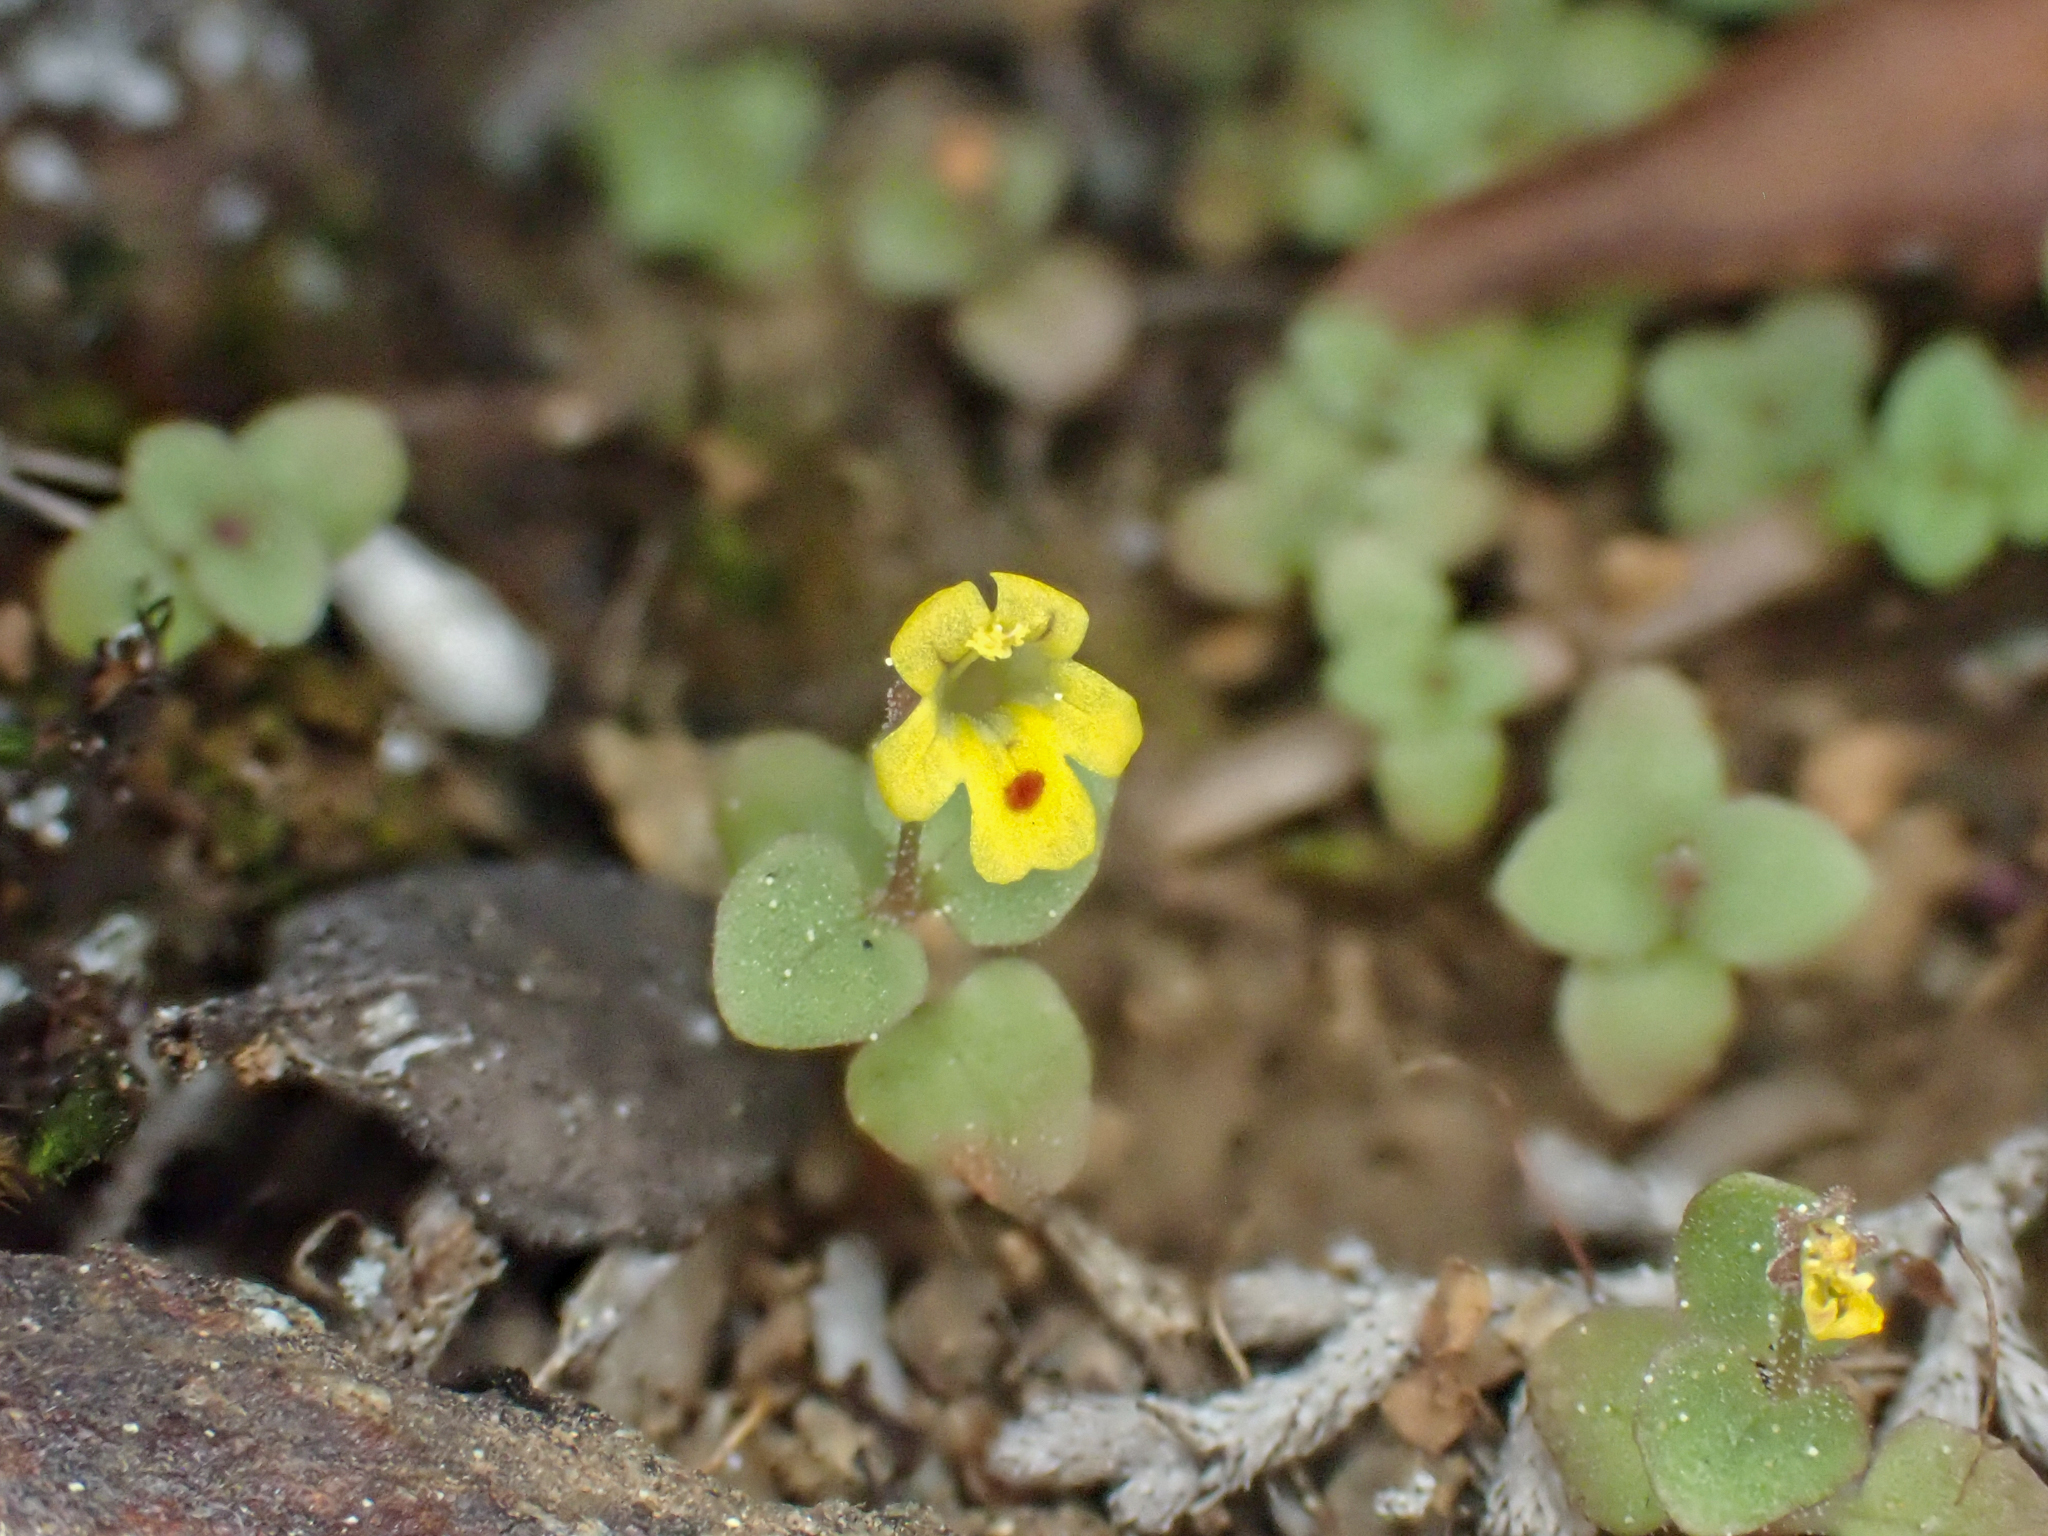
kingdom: Plantae
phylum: Tracheophyta
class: Magnoliopsida
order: Lamiales
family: Phrymaceae
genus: Erythranthe
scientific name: Erythranthe alsinoides
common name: Chickweed monkeyflower
